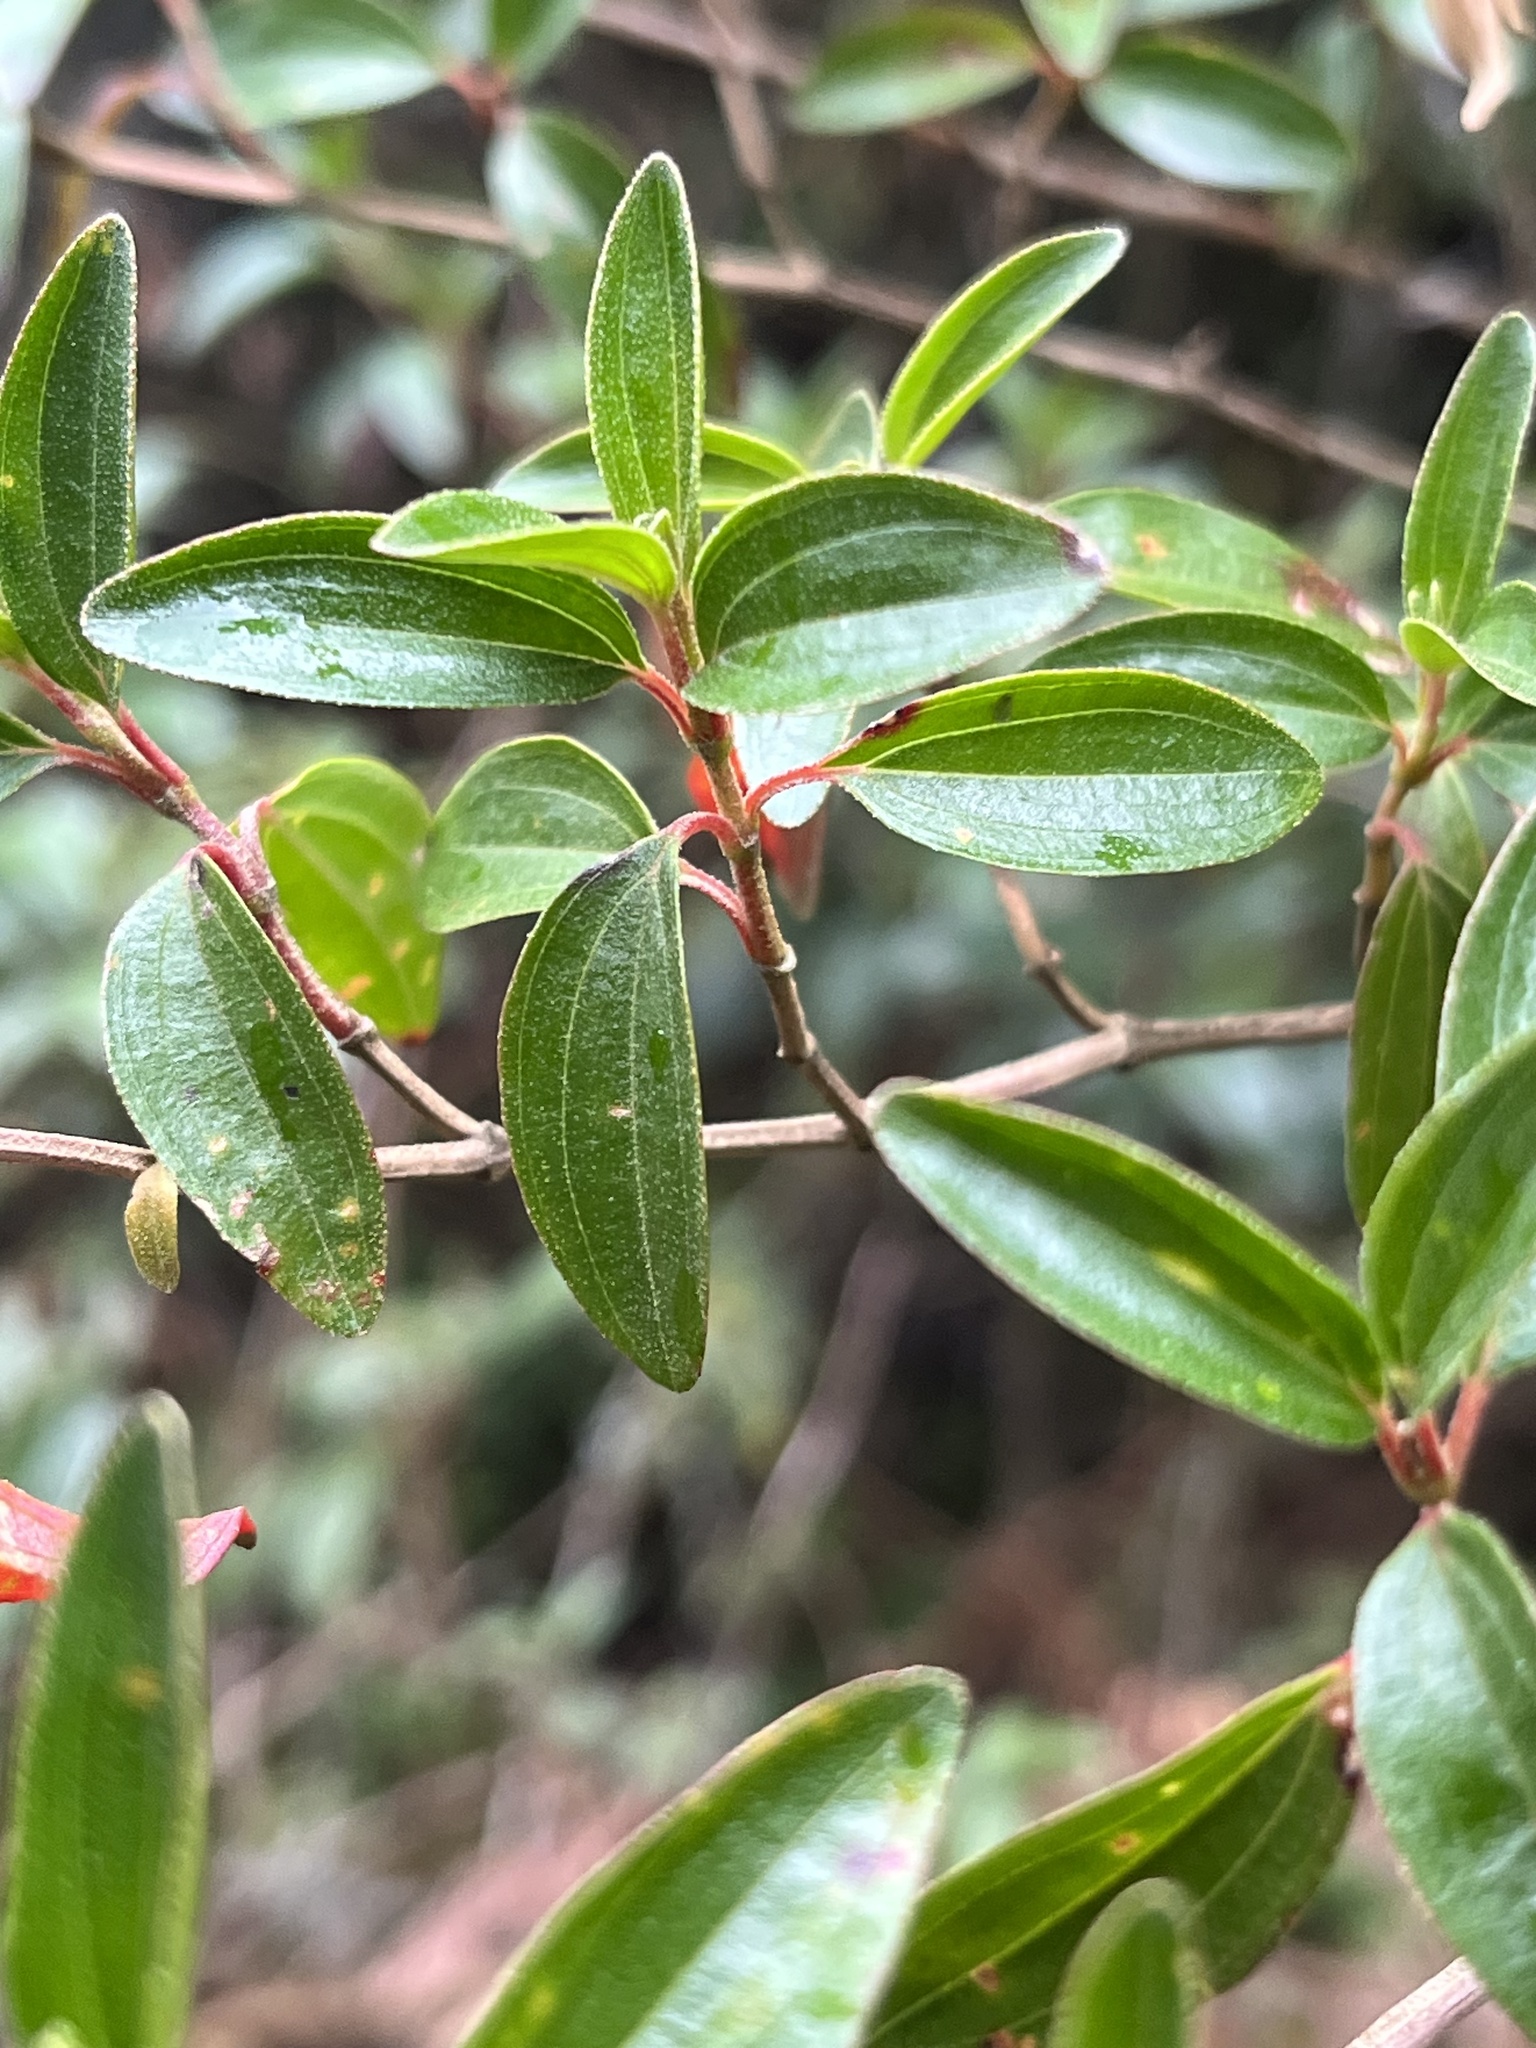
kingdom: Plantae
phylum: Tracheophyta
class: Magnoliopsida
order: Myrtales
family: Melastomataceae
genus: Monochaetum
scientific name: Monochaetum myrtoideum
